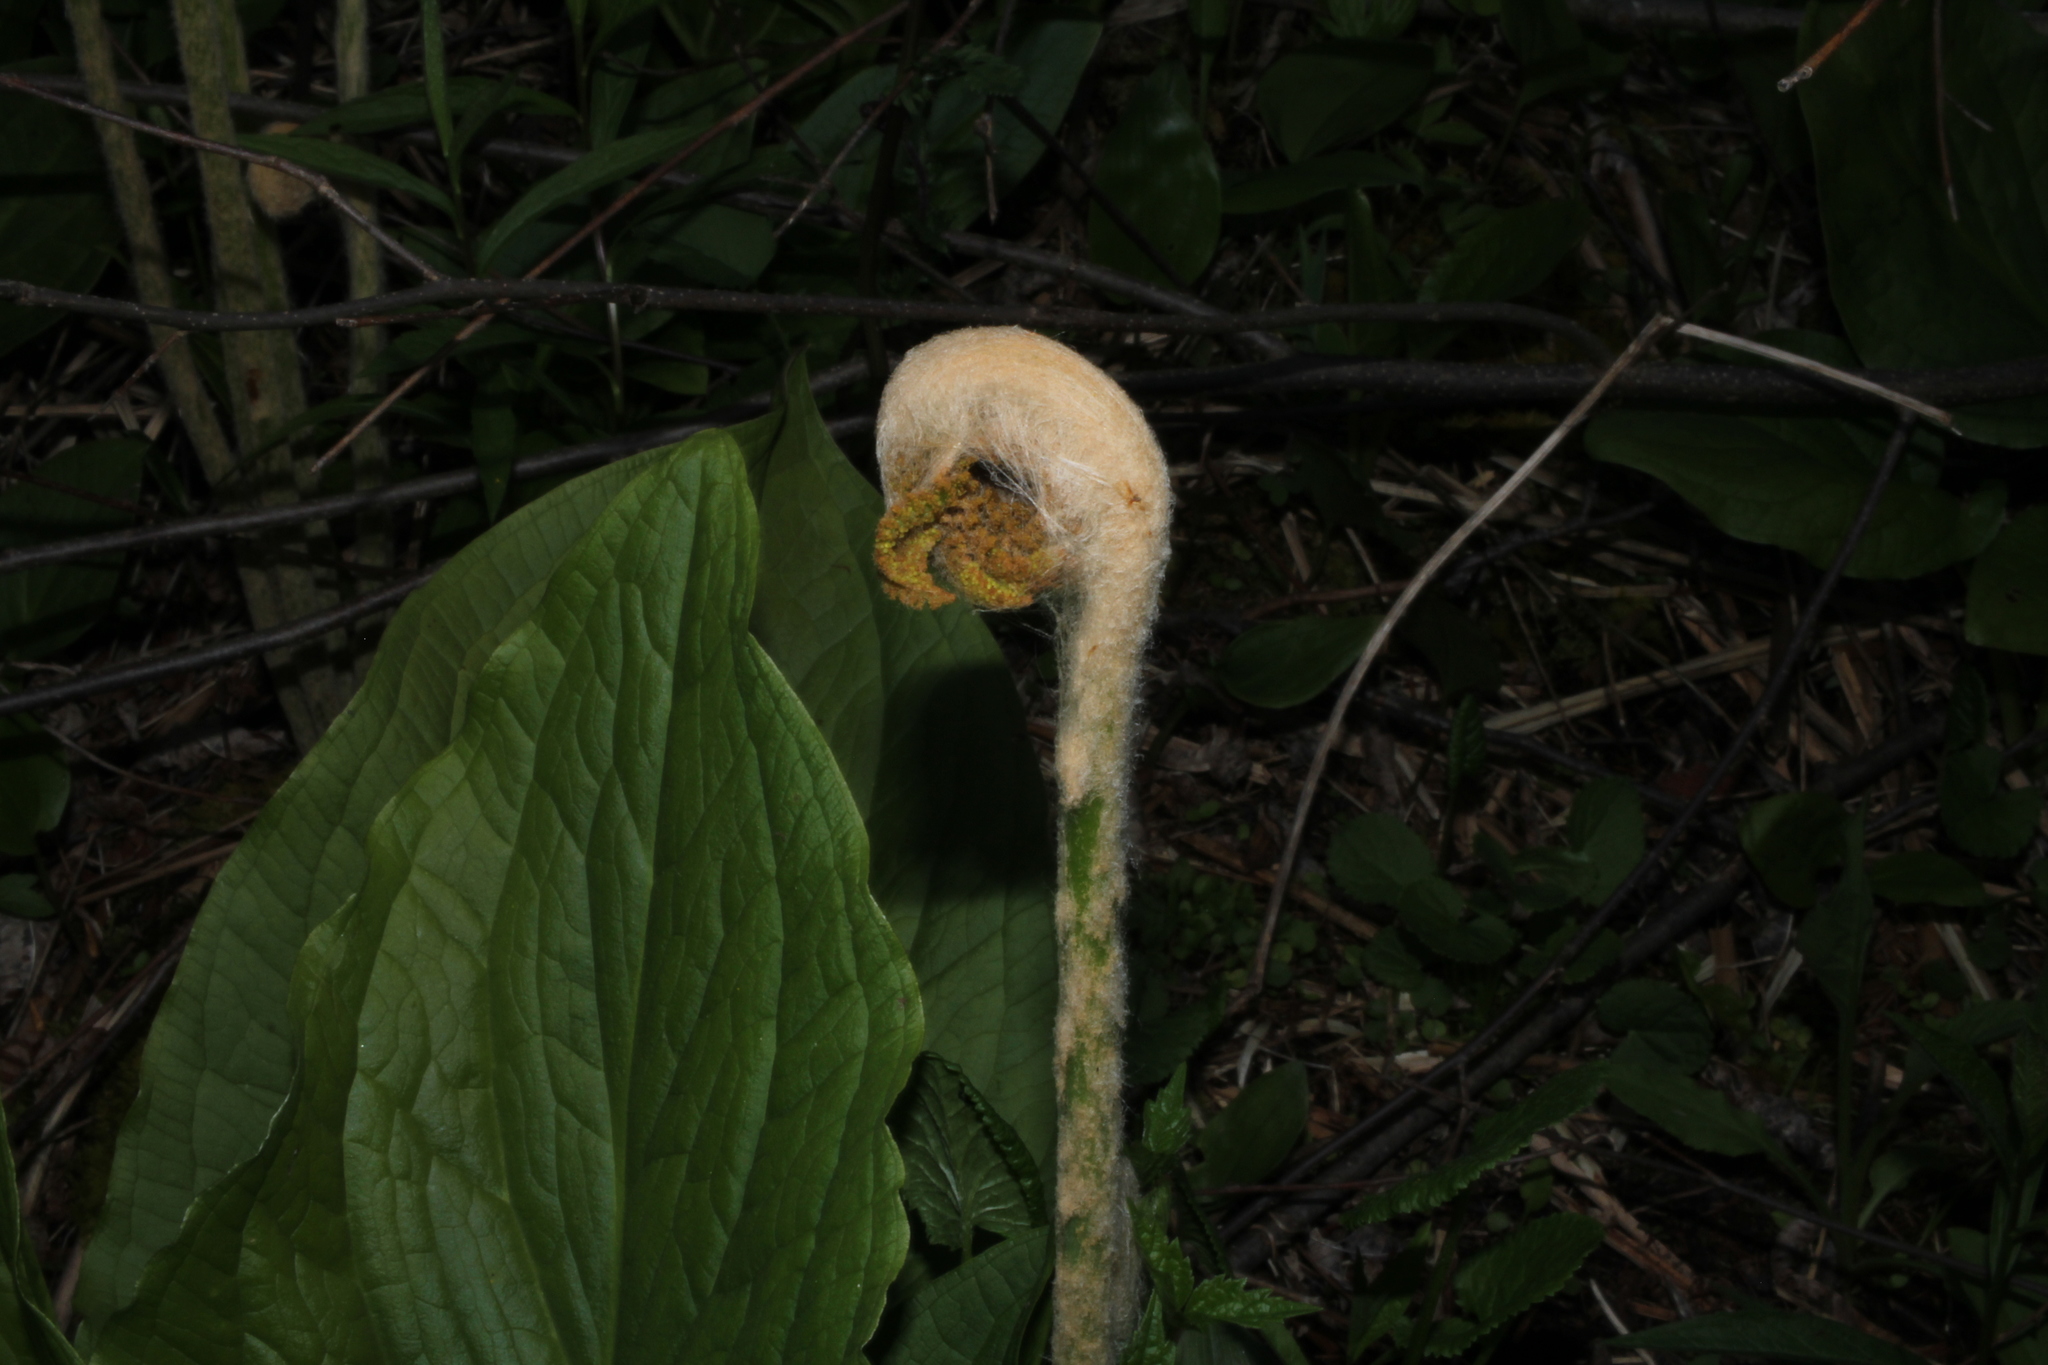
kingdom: Plantae
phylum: Tracheophyta
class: Polypodiopsida
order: Osmundales
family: Osmundaceae
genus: Osmundastrum
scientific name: Osmundastrum cinnamomeum
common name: Cinnamon fern
